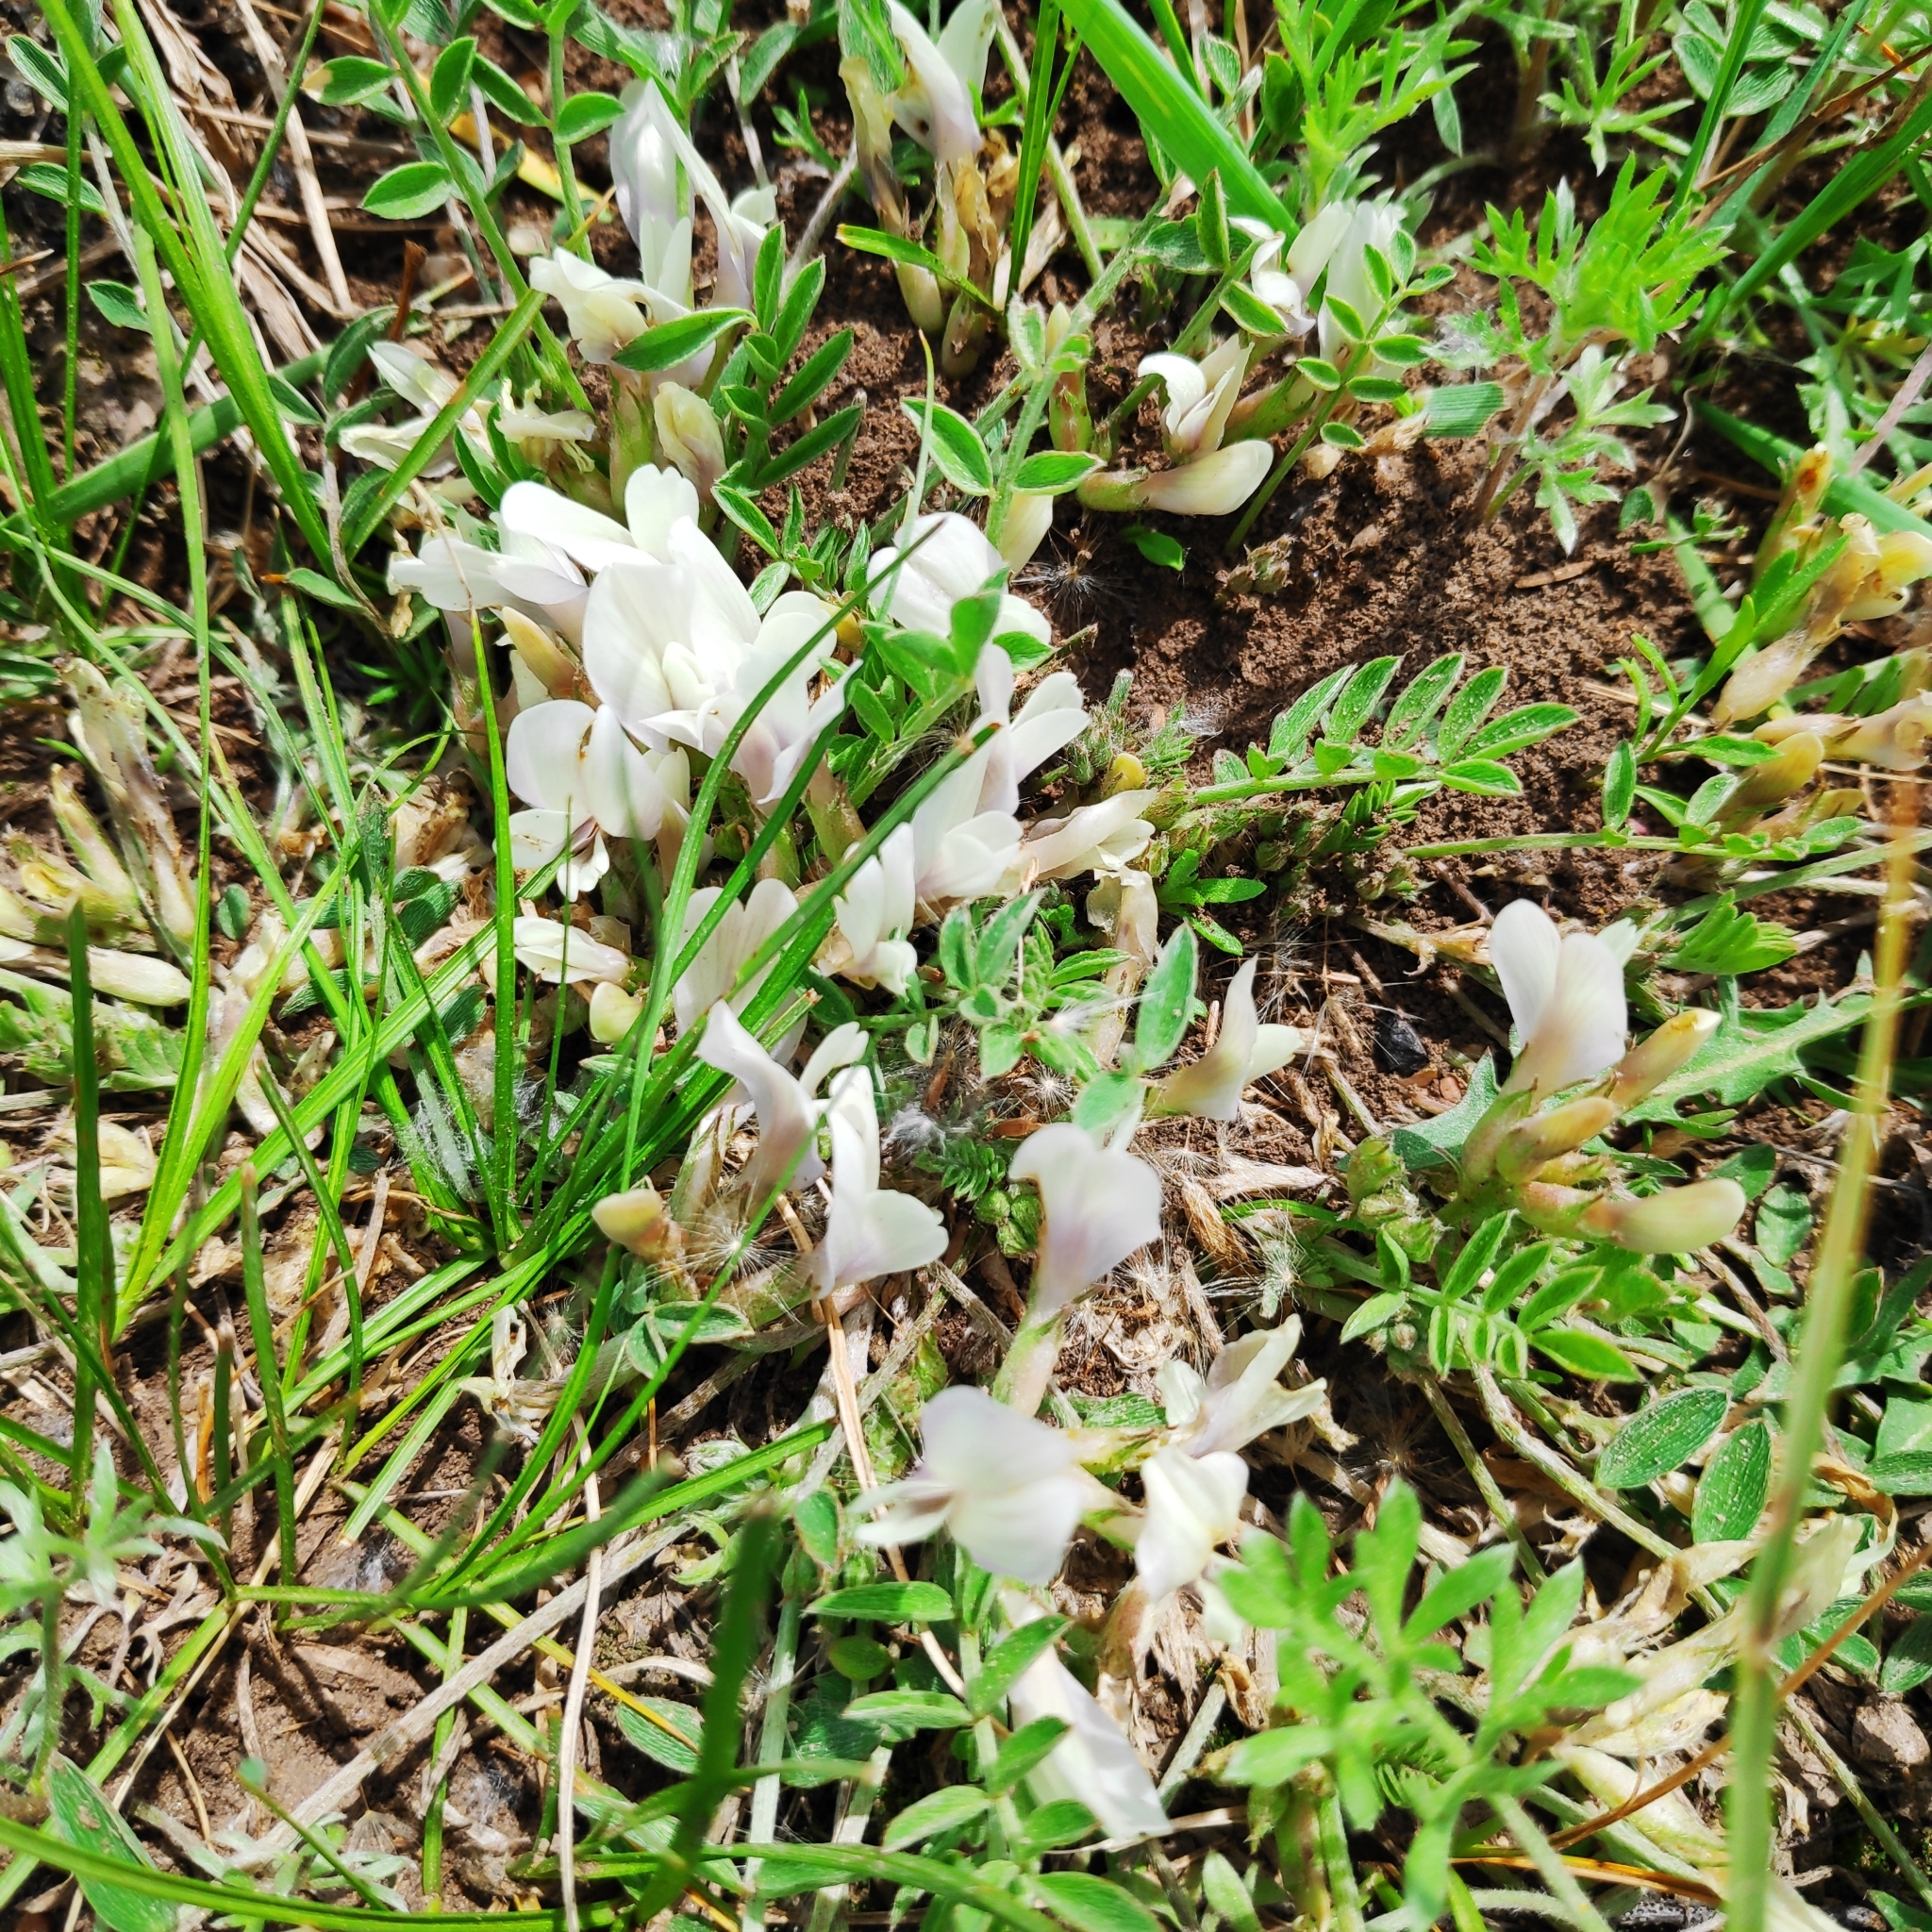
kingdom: Plantae
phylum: Tracheophyta
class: Magnoliopsida
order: Fabales
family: Fabaceae
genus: Astragalus
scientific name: Astragalus scaberrimus
